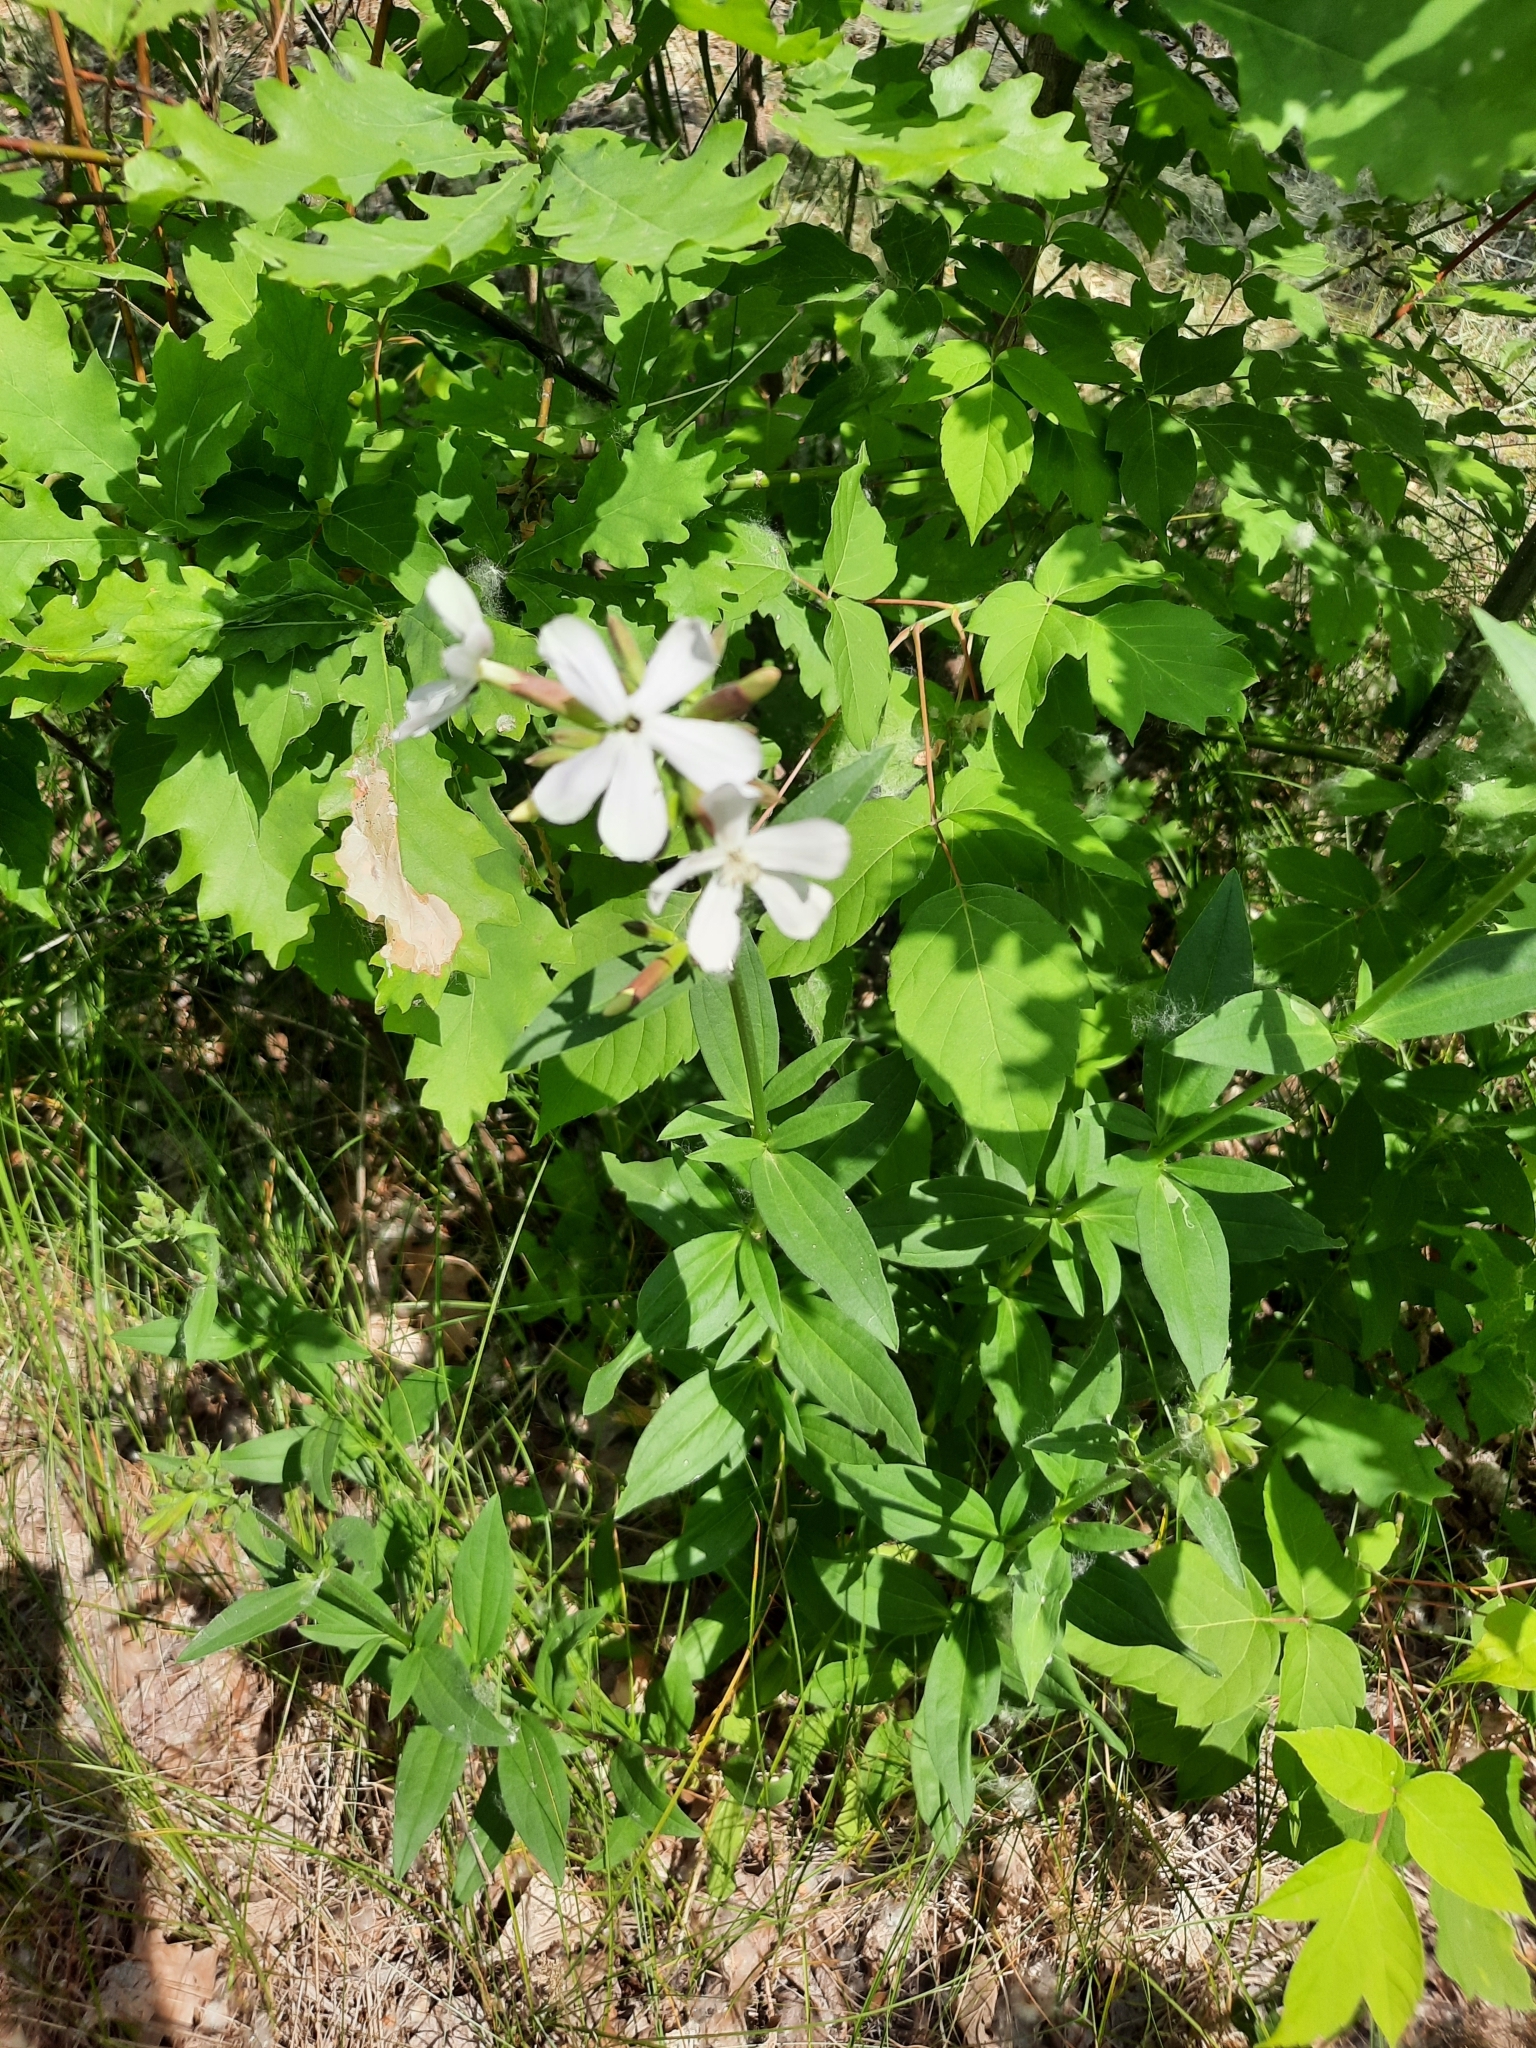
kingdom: Plantae
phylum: Tracheophyta
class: Magnoliopsida
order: Caryophyllales
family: Caryophyllaceae
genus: Saponaria
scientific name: Saponaria officinalis
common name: Soapwort
